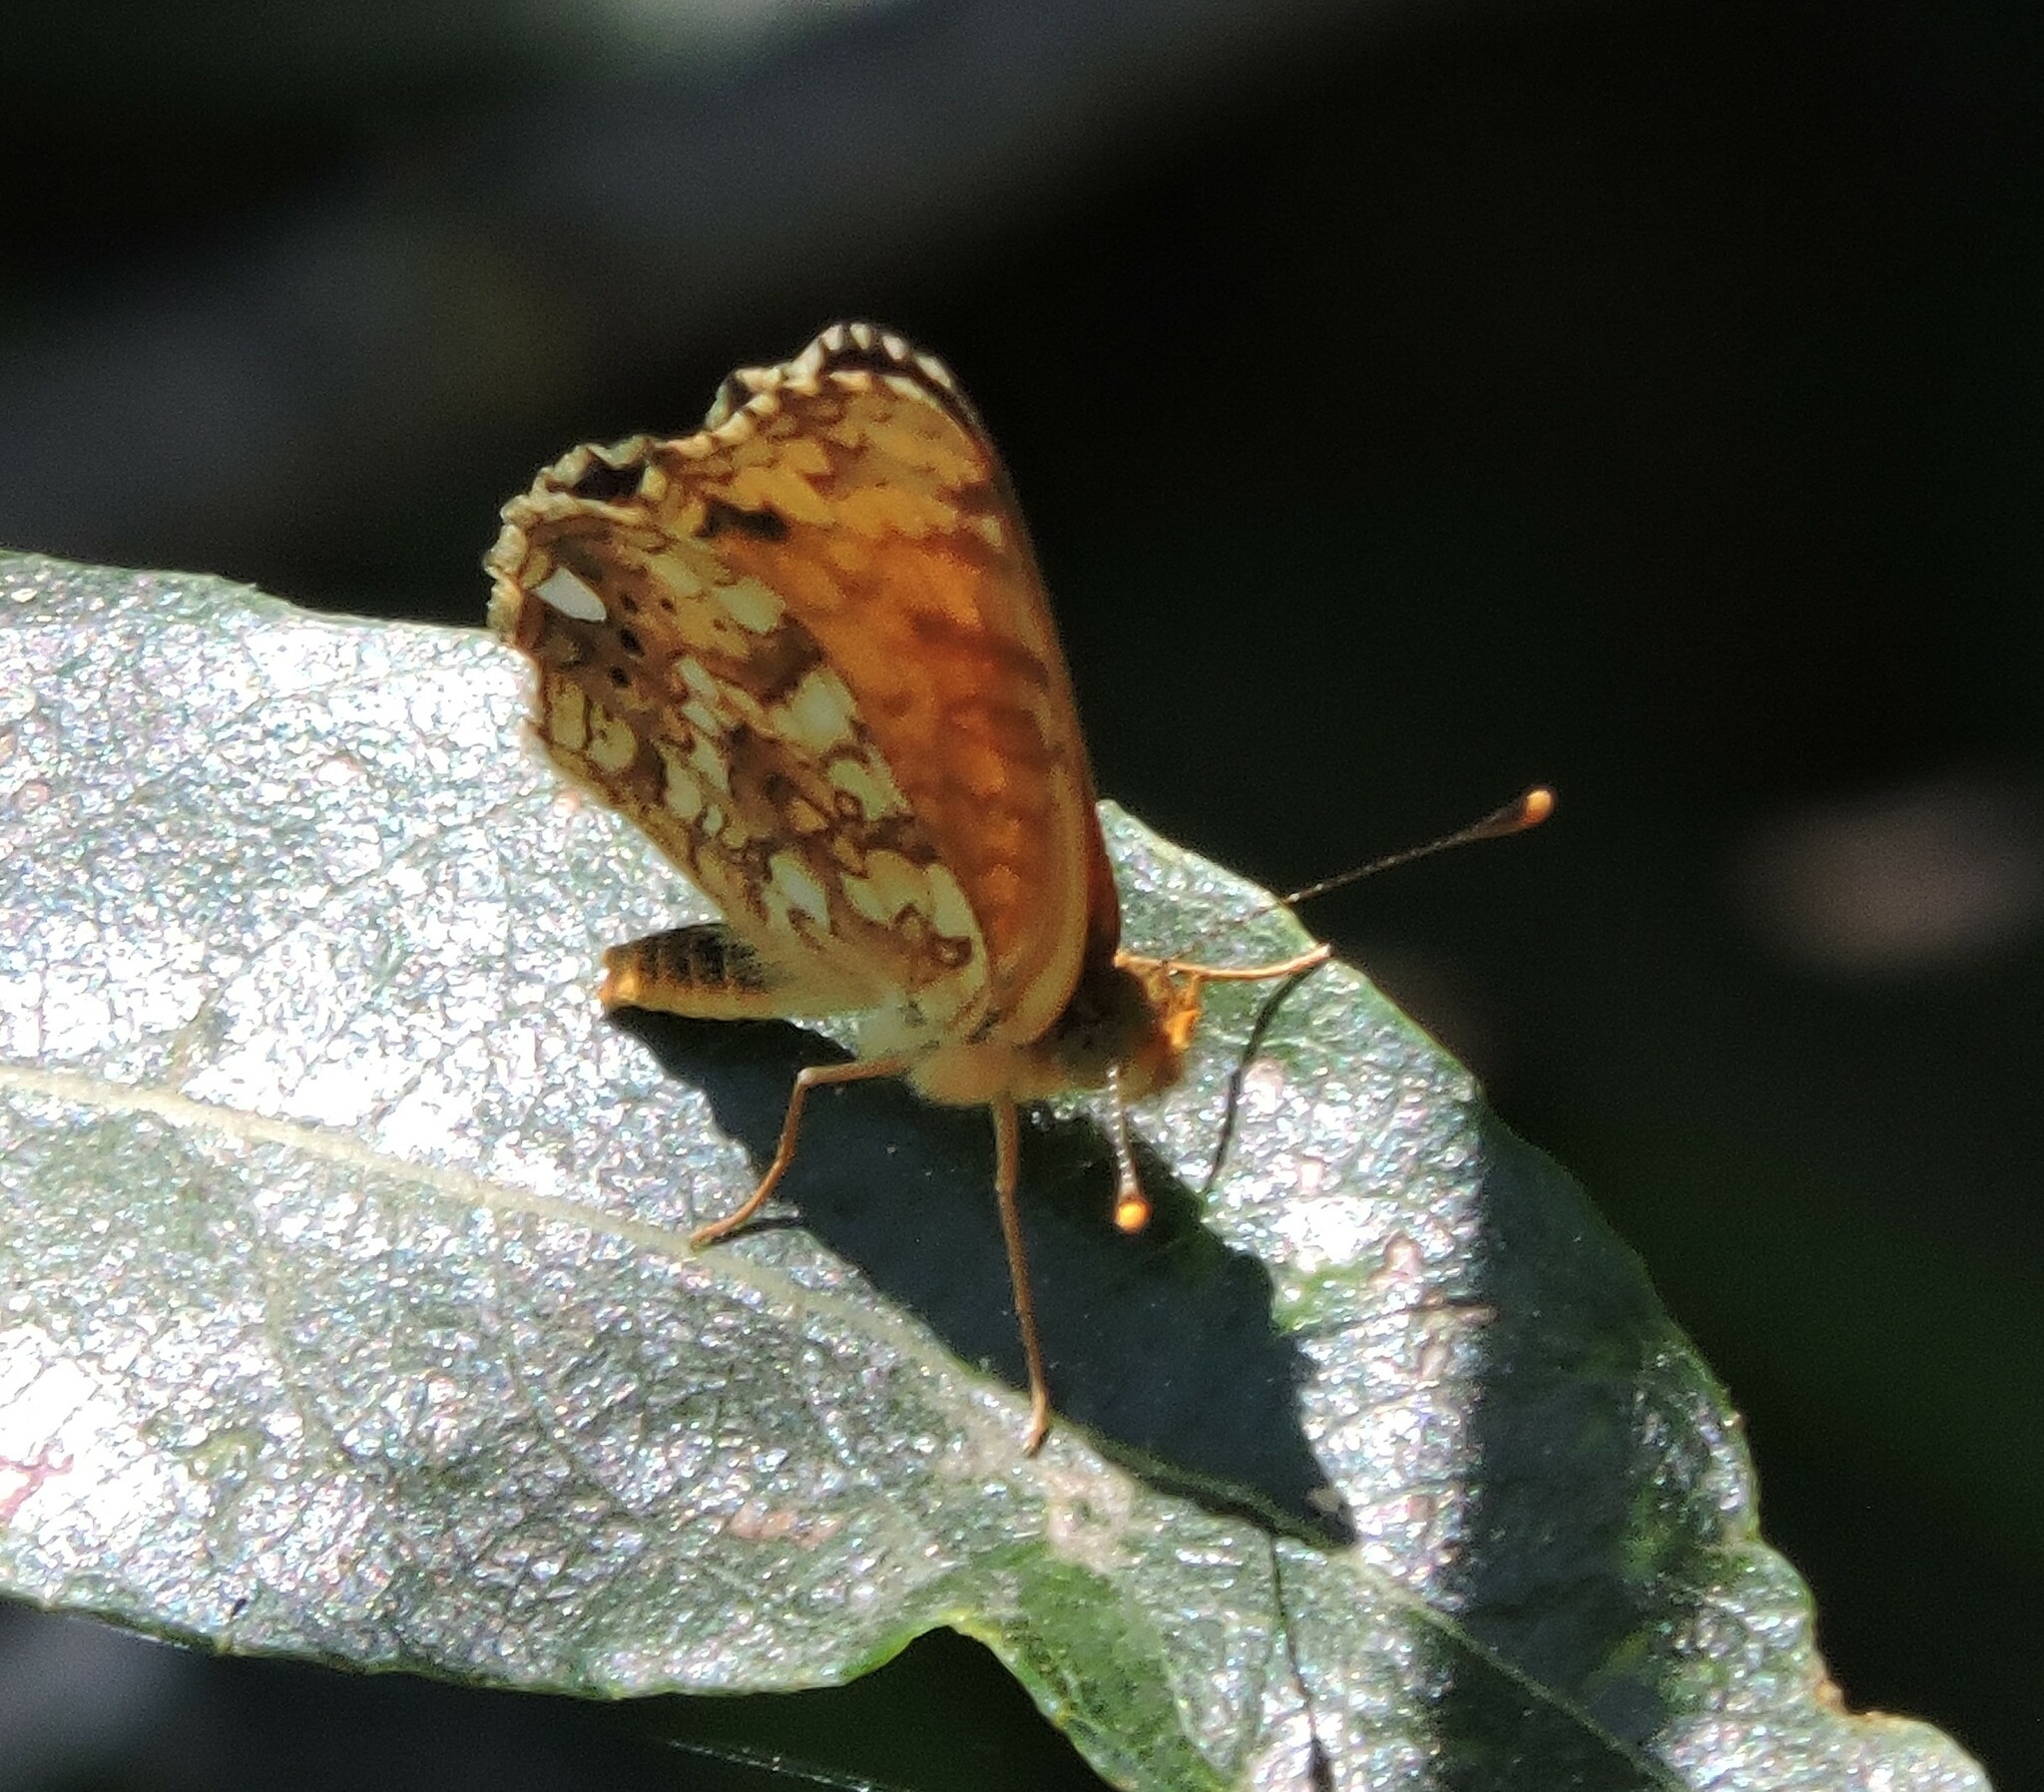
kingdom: Animalia
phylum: Arthropoda
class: Insecta
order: Lepidoptera
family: Nymphalidae
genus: Eresia
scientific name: Eresia aveyrona
